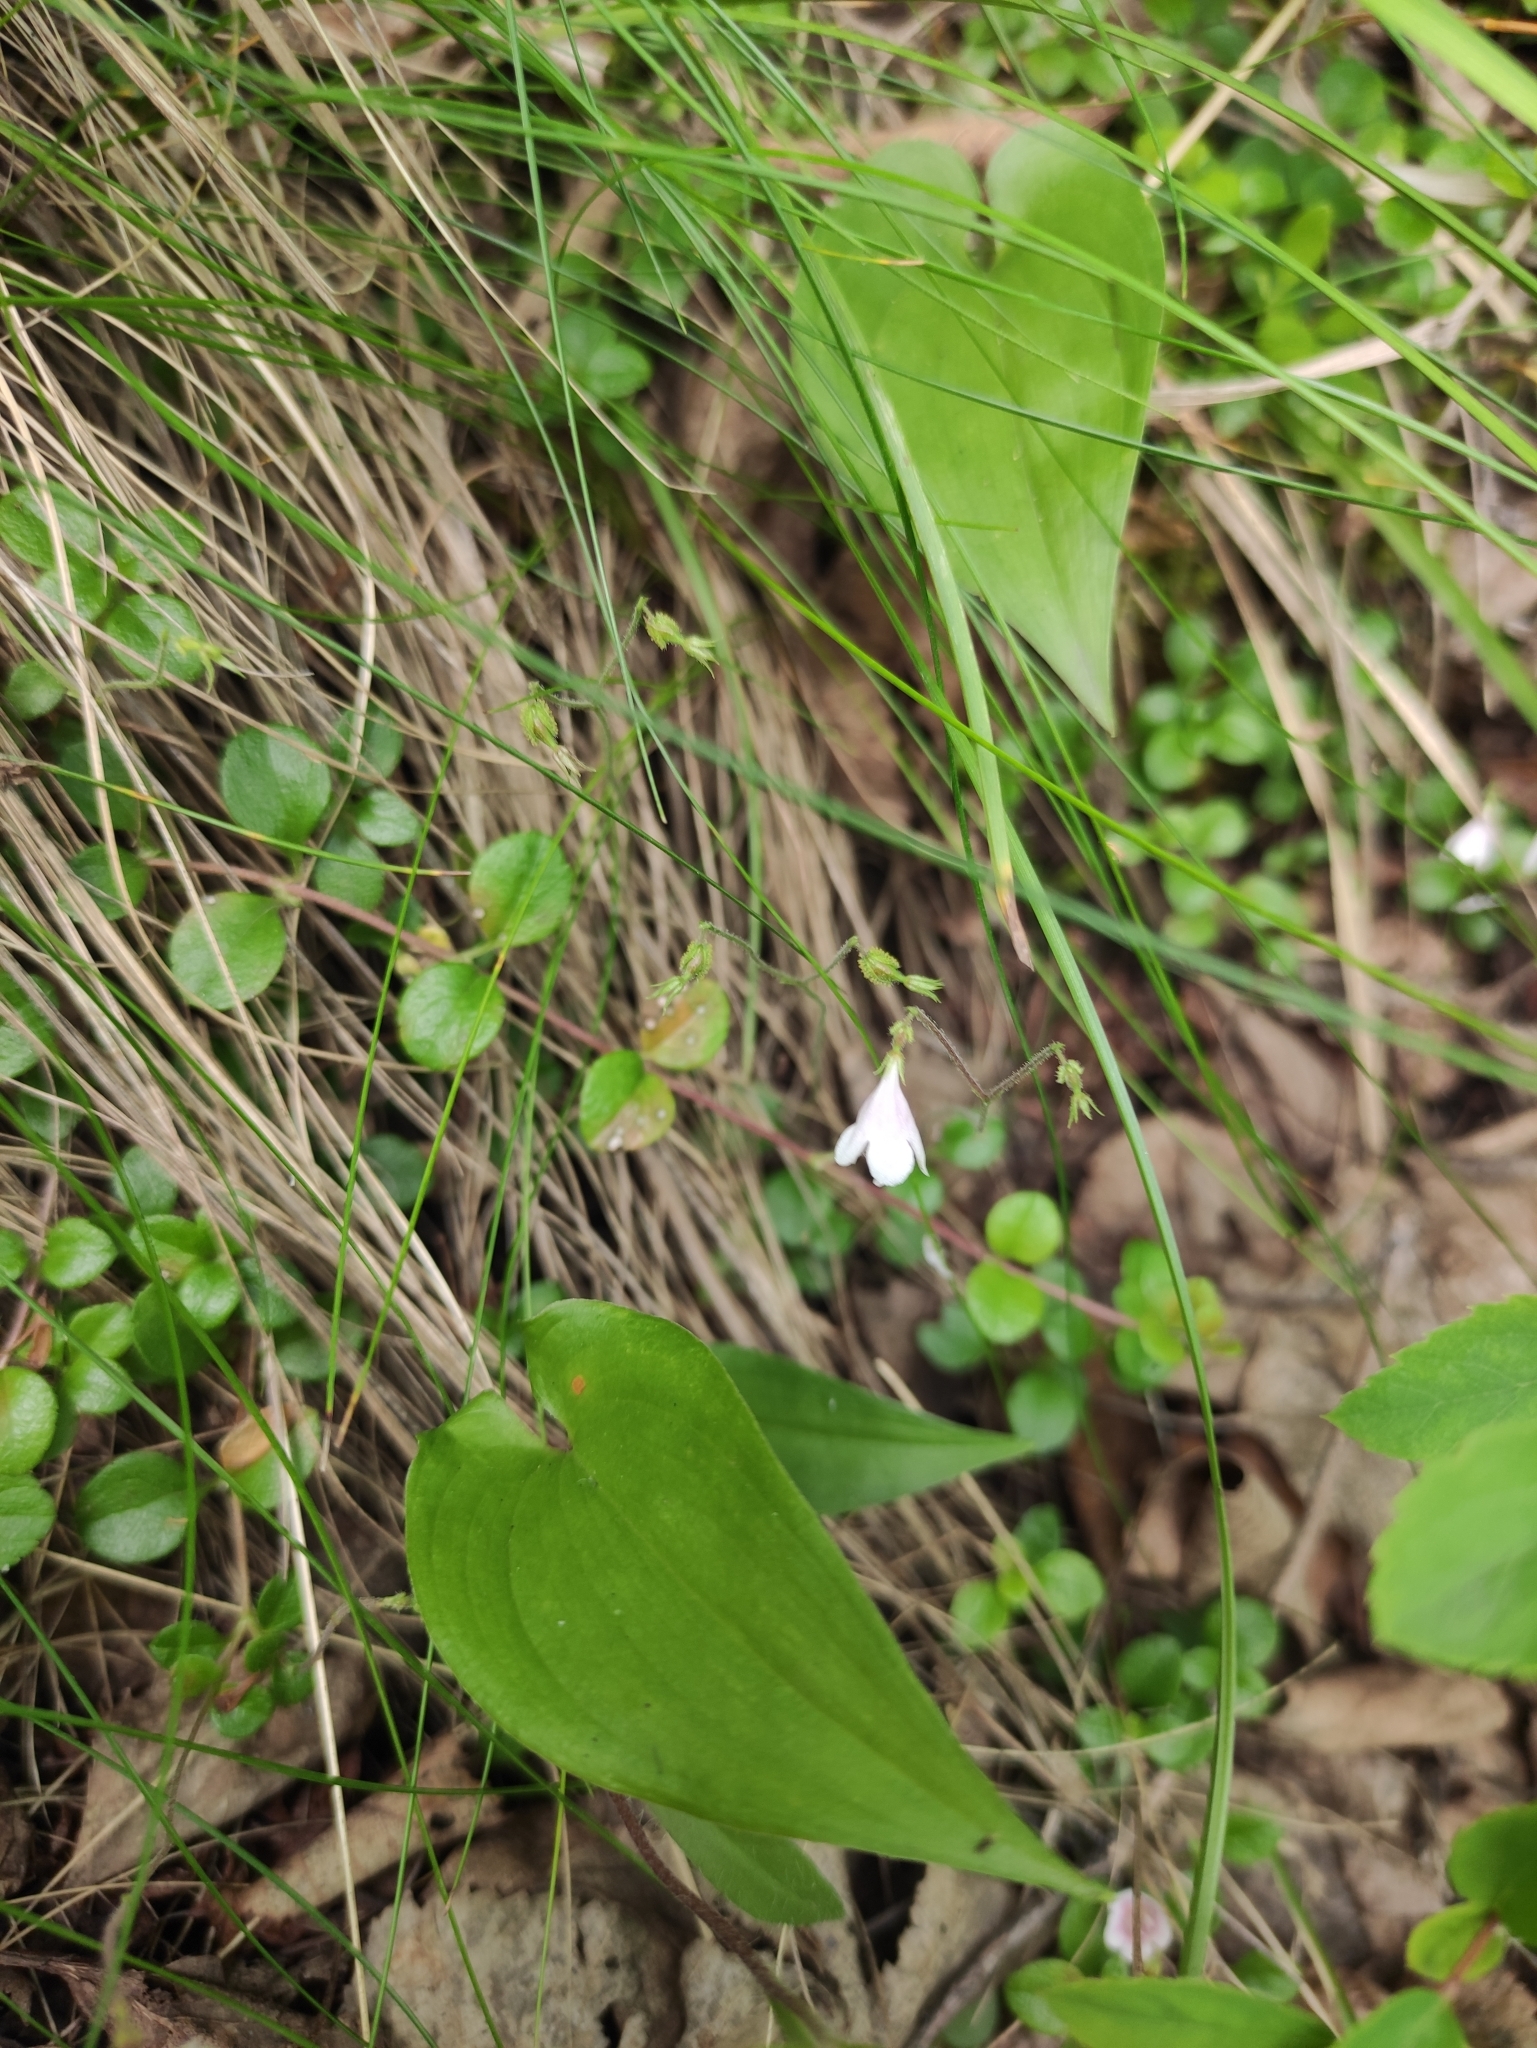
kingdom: Plantae
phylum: Tracheophyta
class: Magnoliopsida
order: Dipsacales
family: Caprifoliaceae
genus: Linnaea
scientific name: Linnaea borealis
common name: Twinflower
